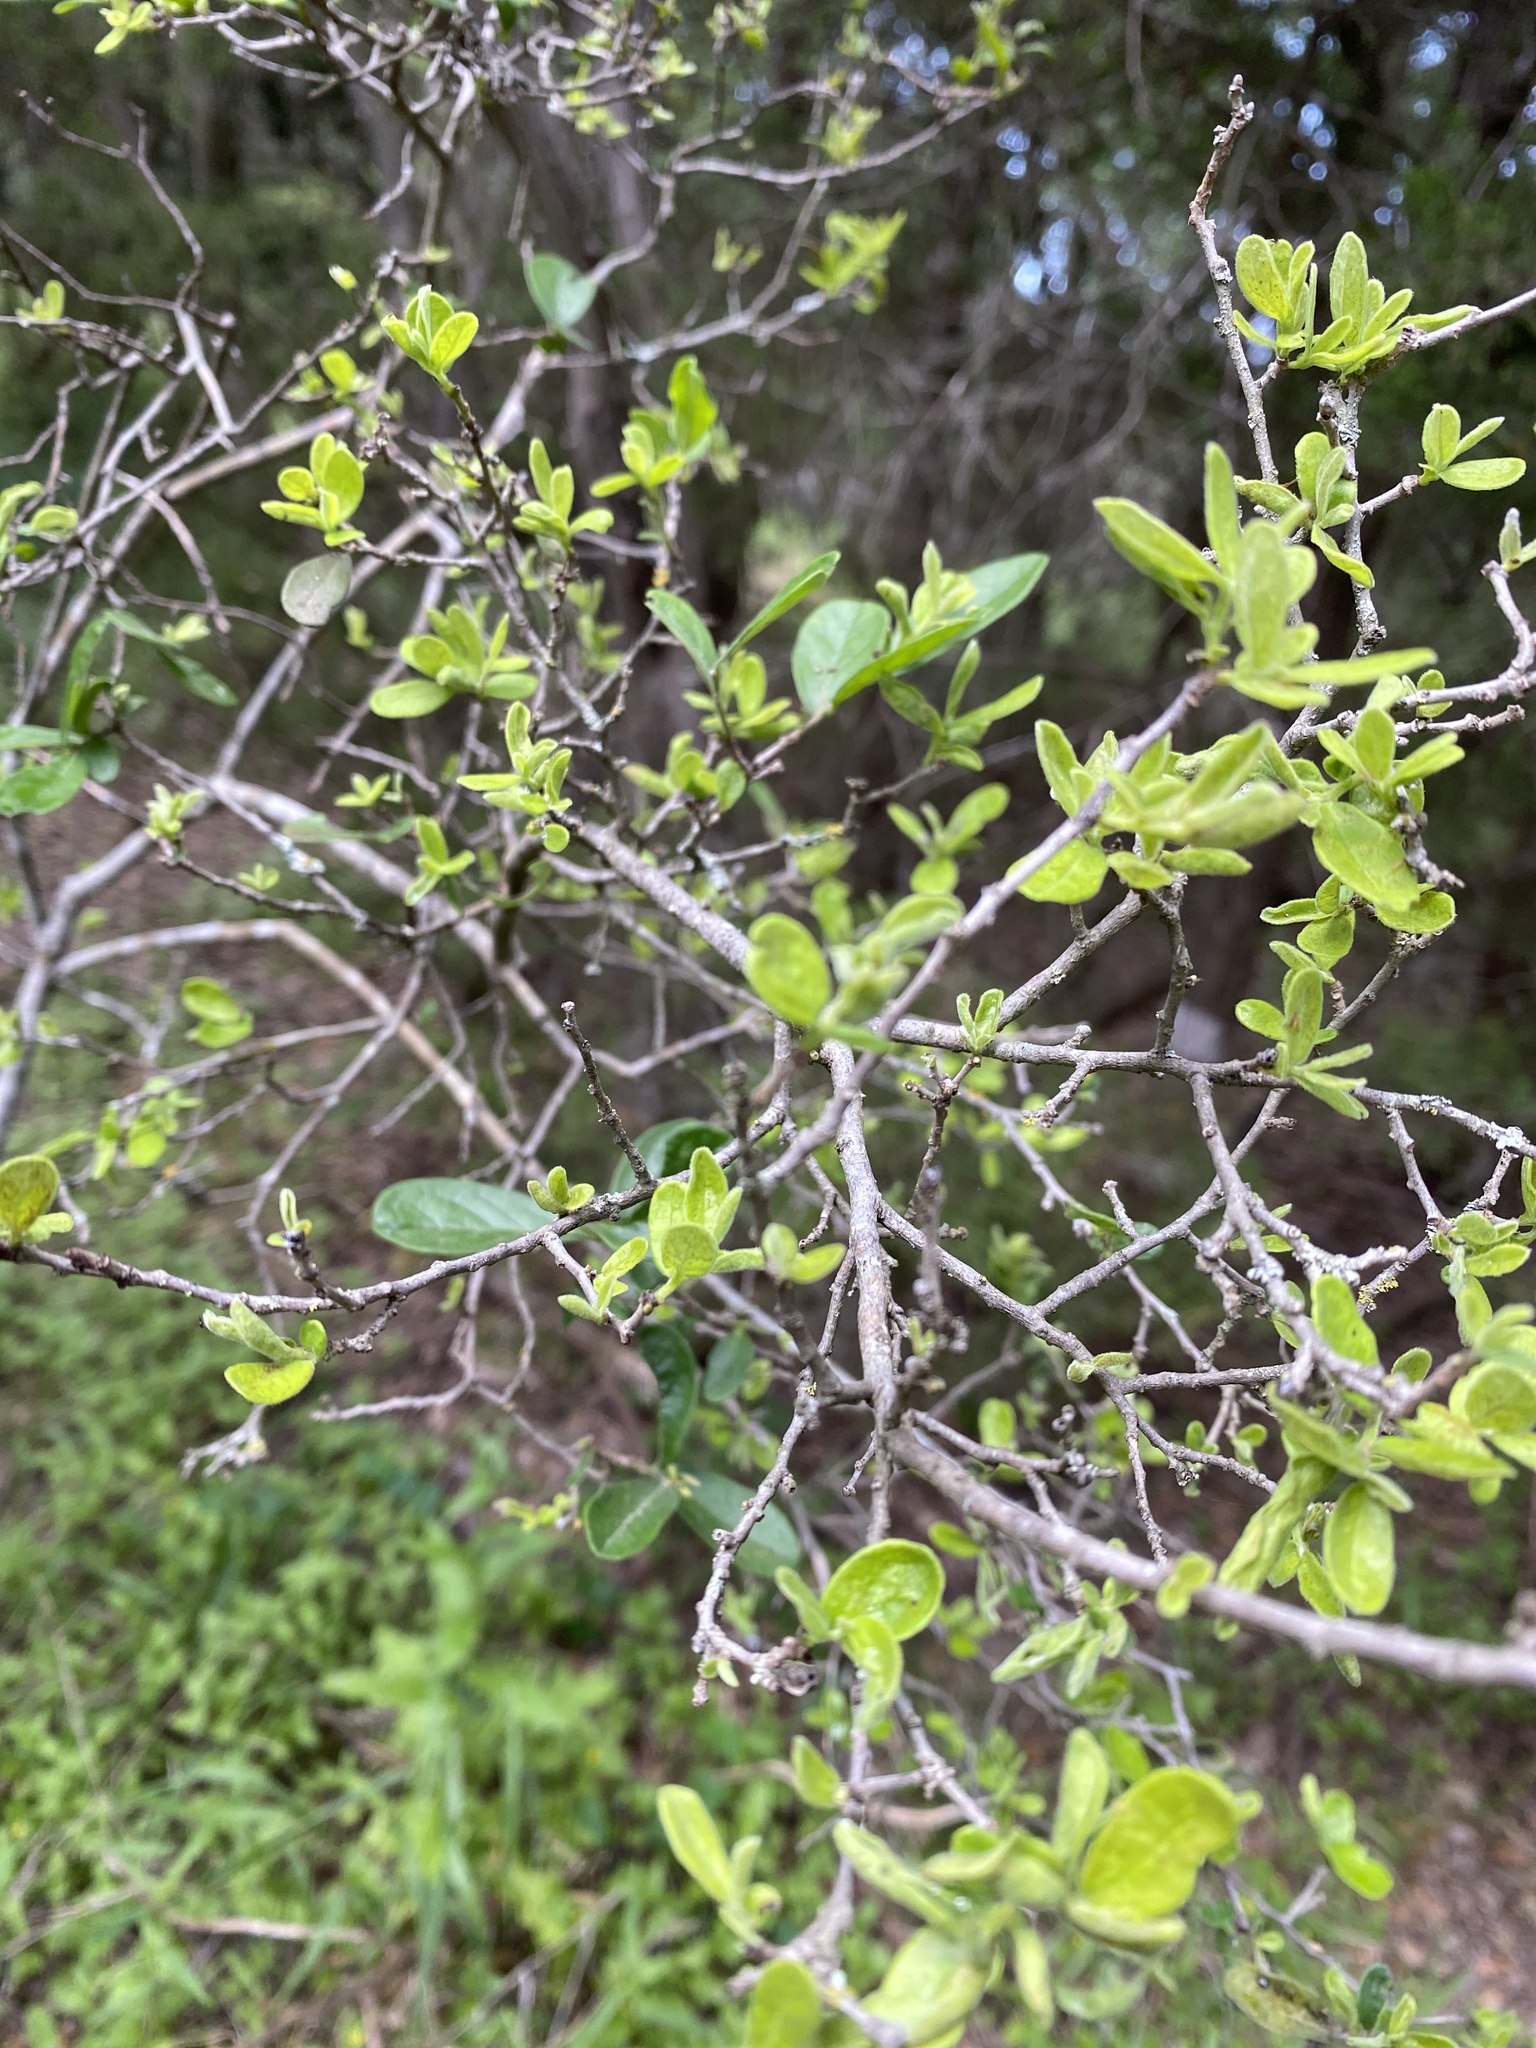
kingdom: Plantae
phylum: Tracheophyta
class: Magnoliopsida
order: Ericales
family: Ebenaceae
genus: Diospyros
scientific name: Diospyros texana
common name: Texas persimmon
